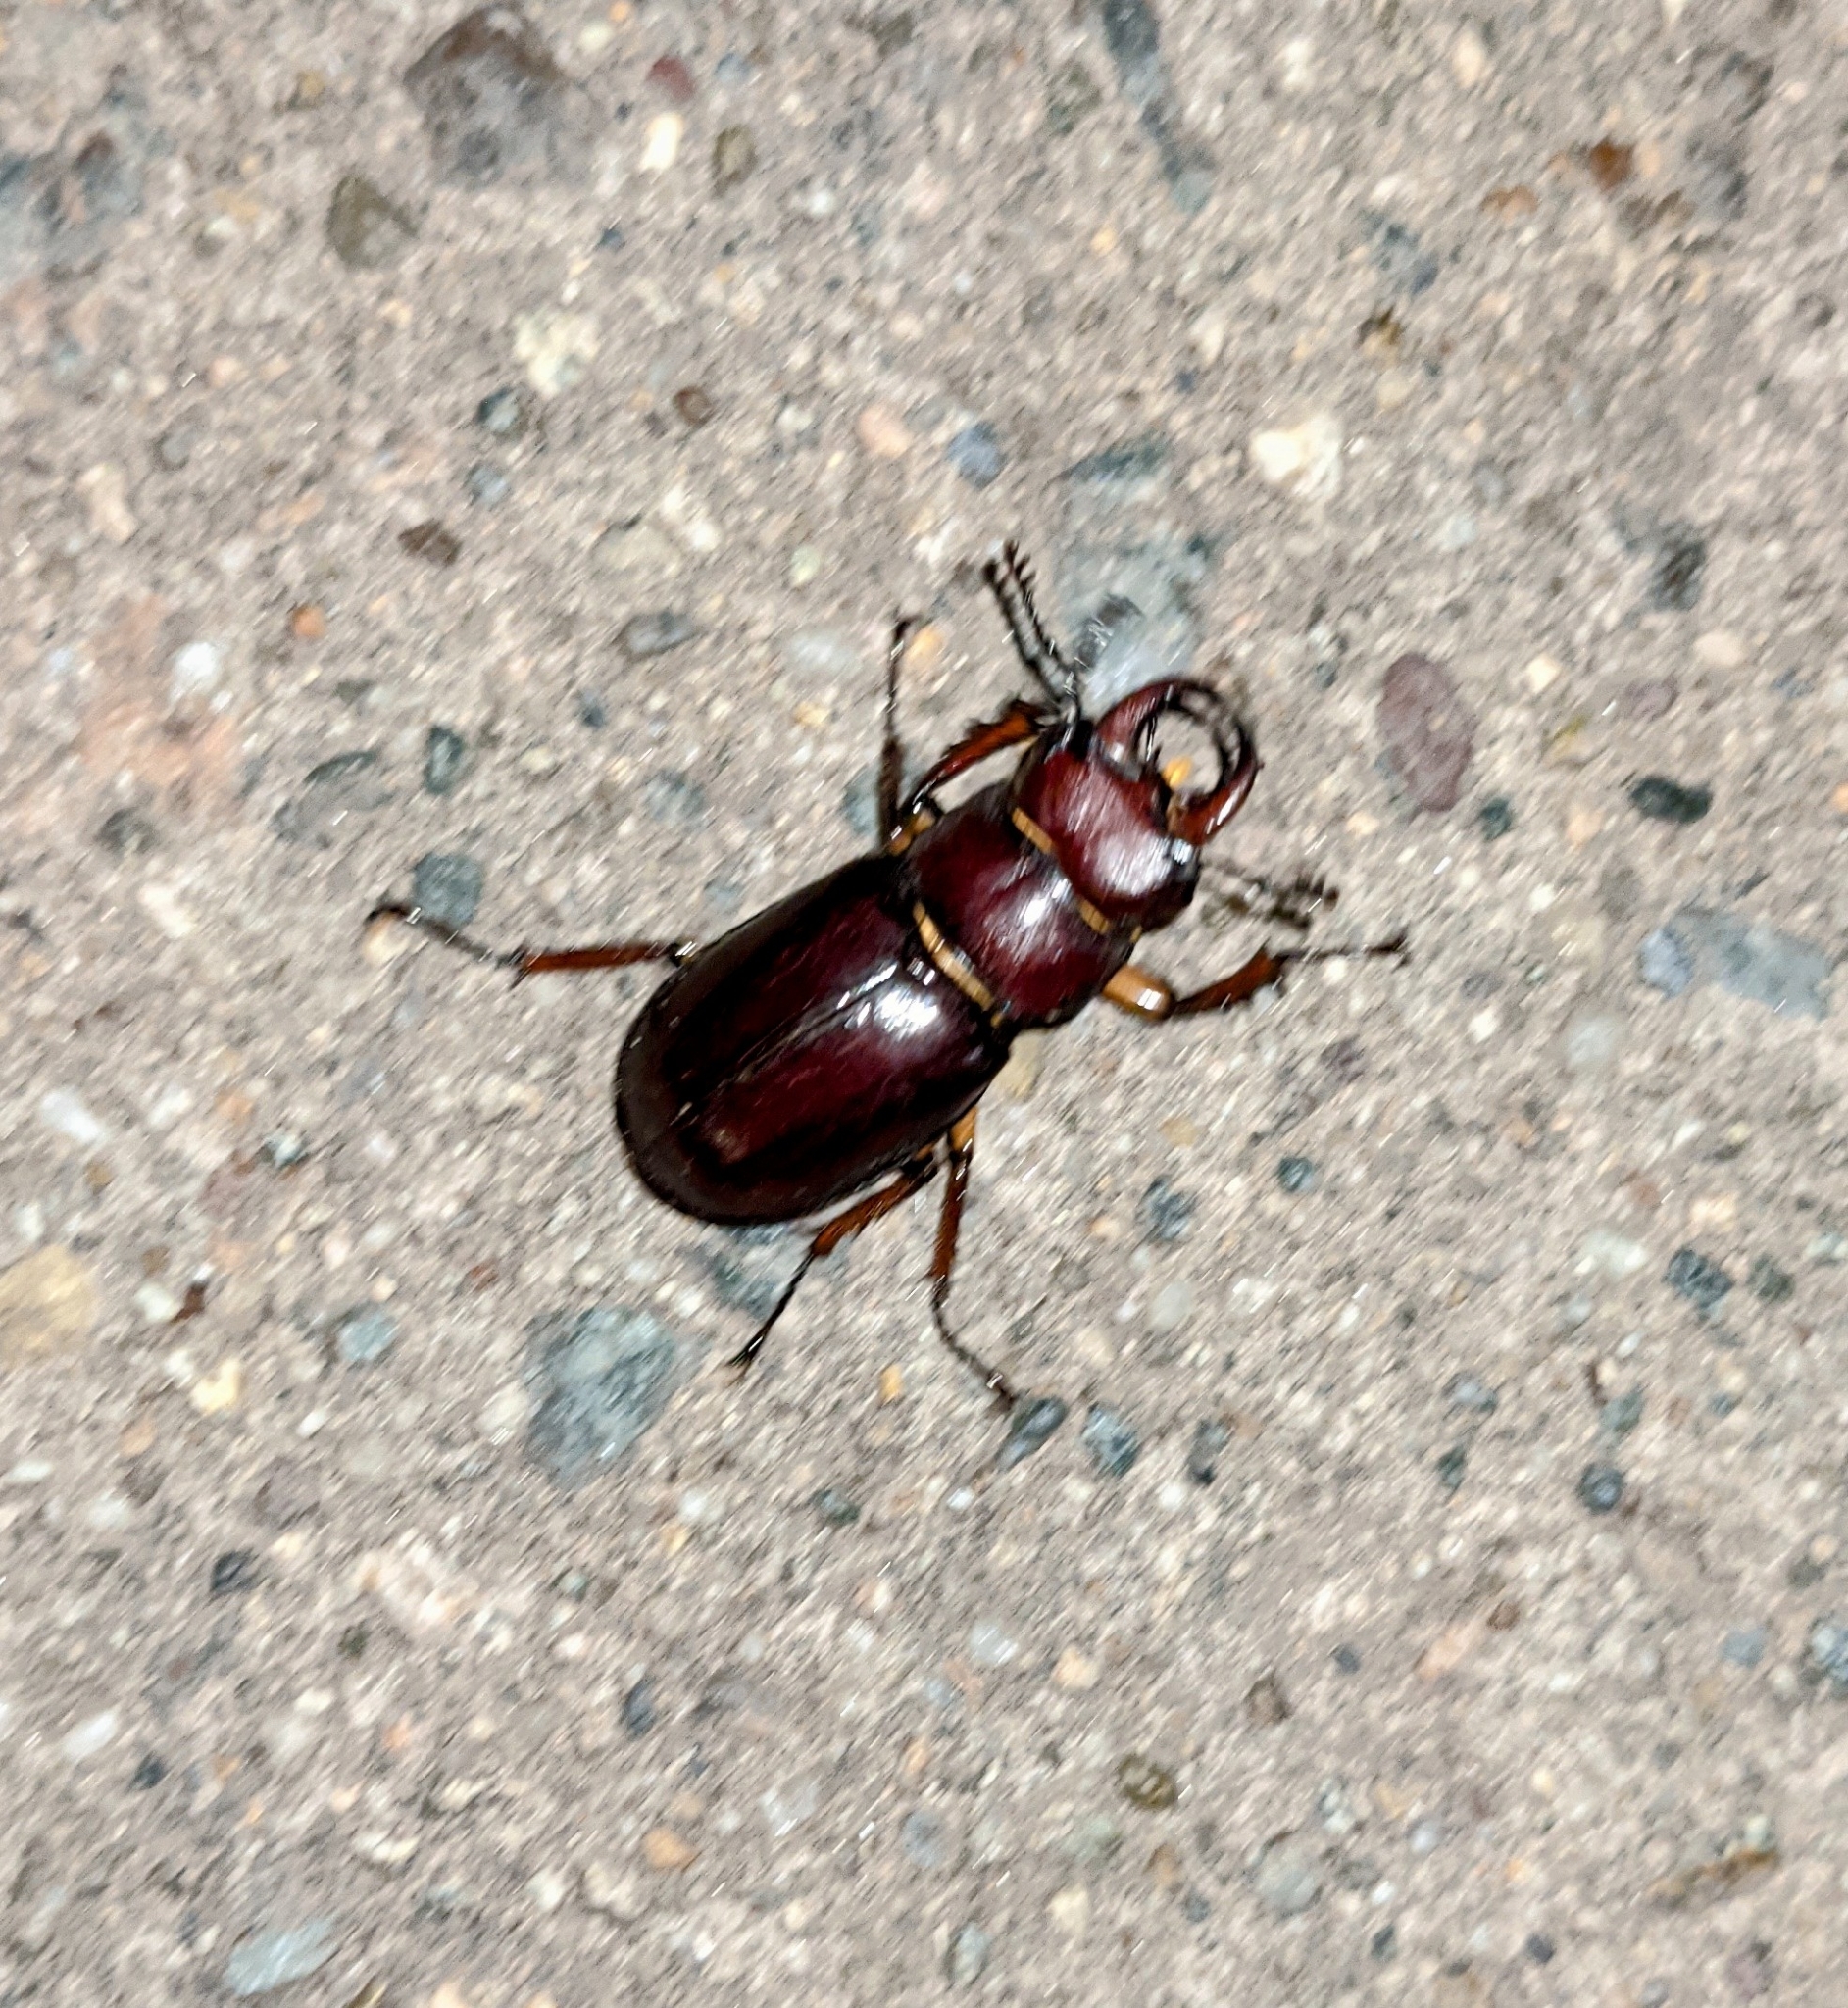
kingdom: Animalia
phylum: Arthropoda
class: Insecta
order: Coleoptera
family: Lucanidae
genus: Lucanus
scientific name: Lucanus capreolus
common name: Stag beetle
